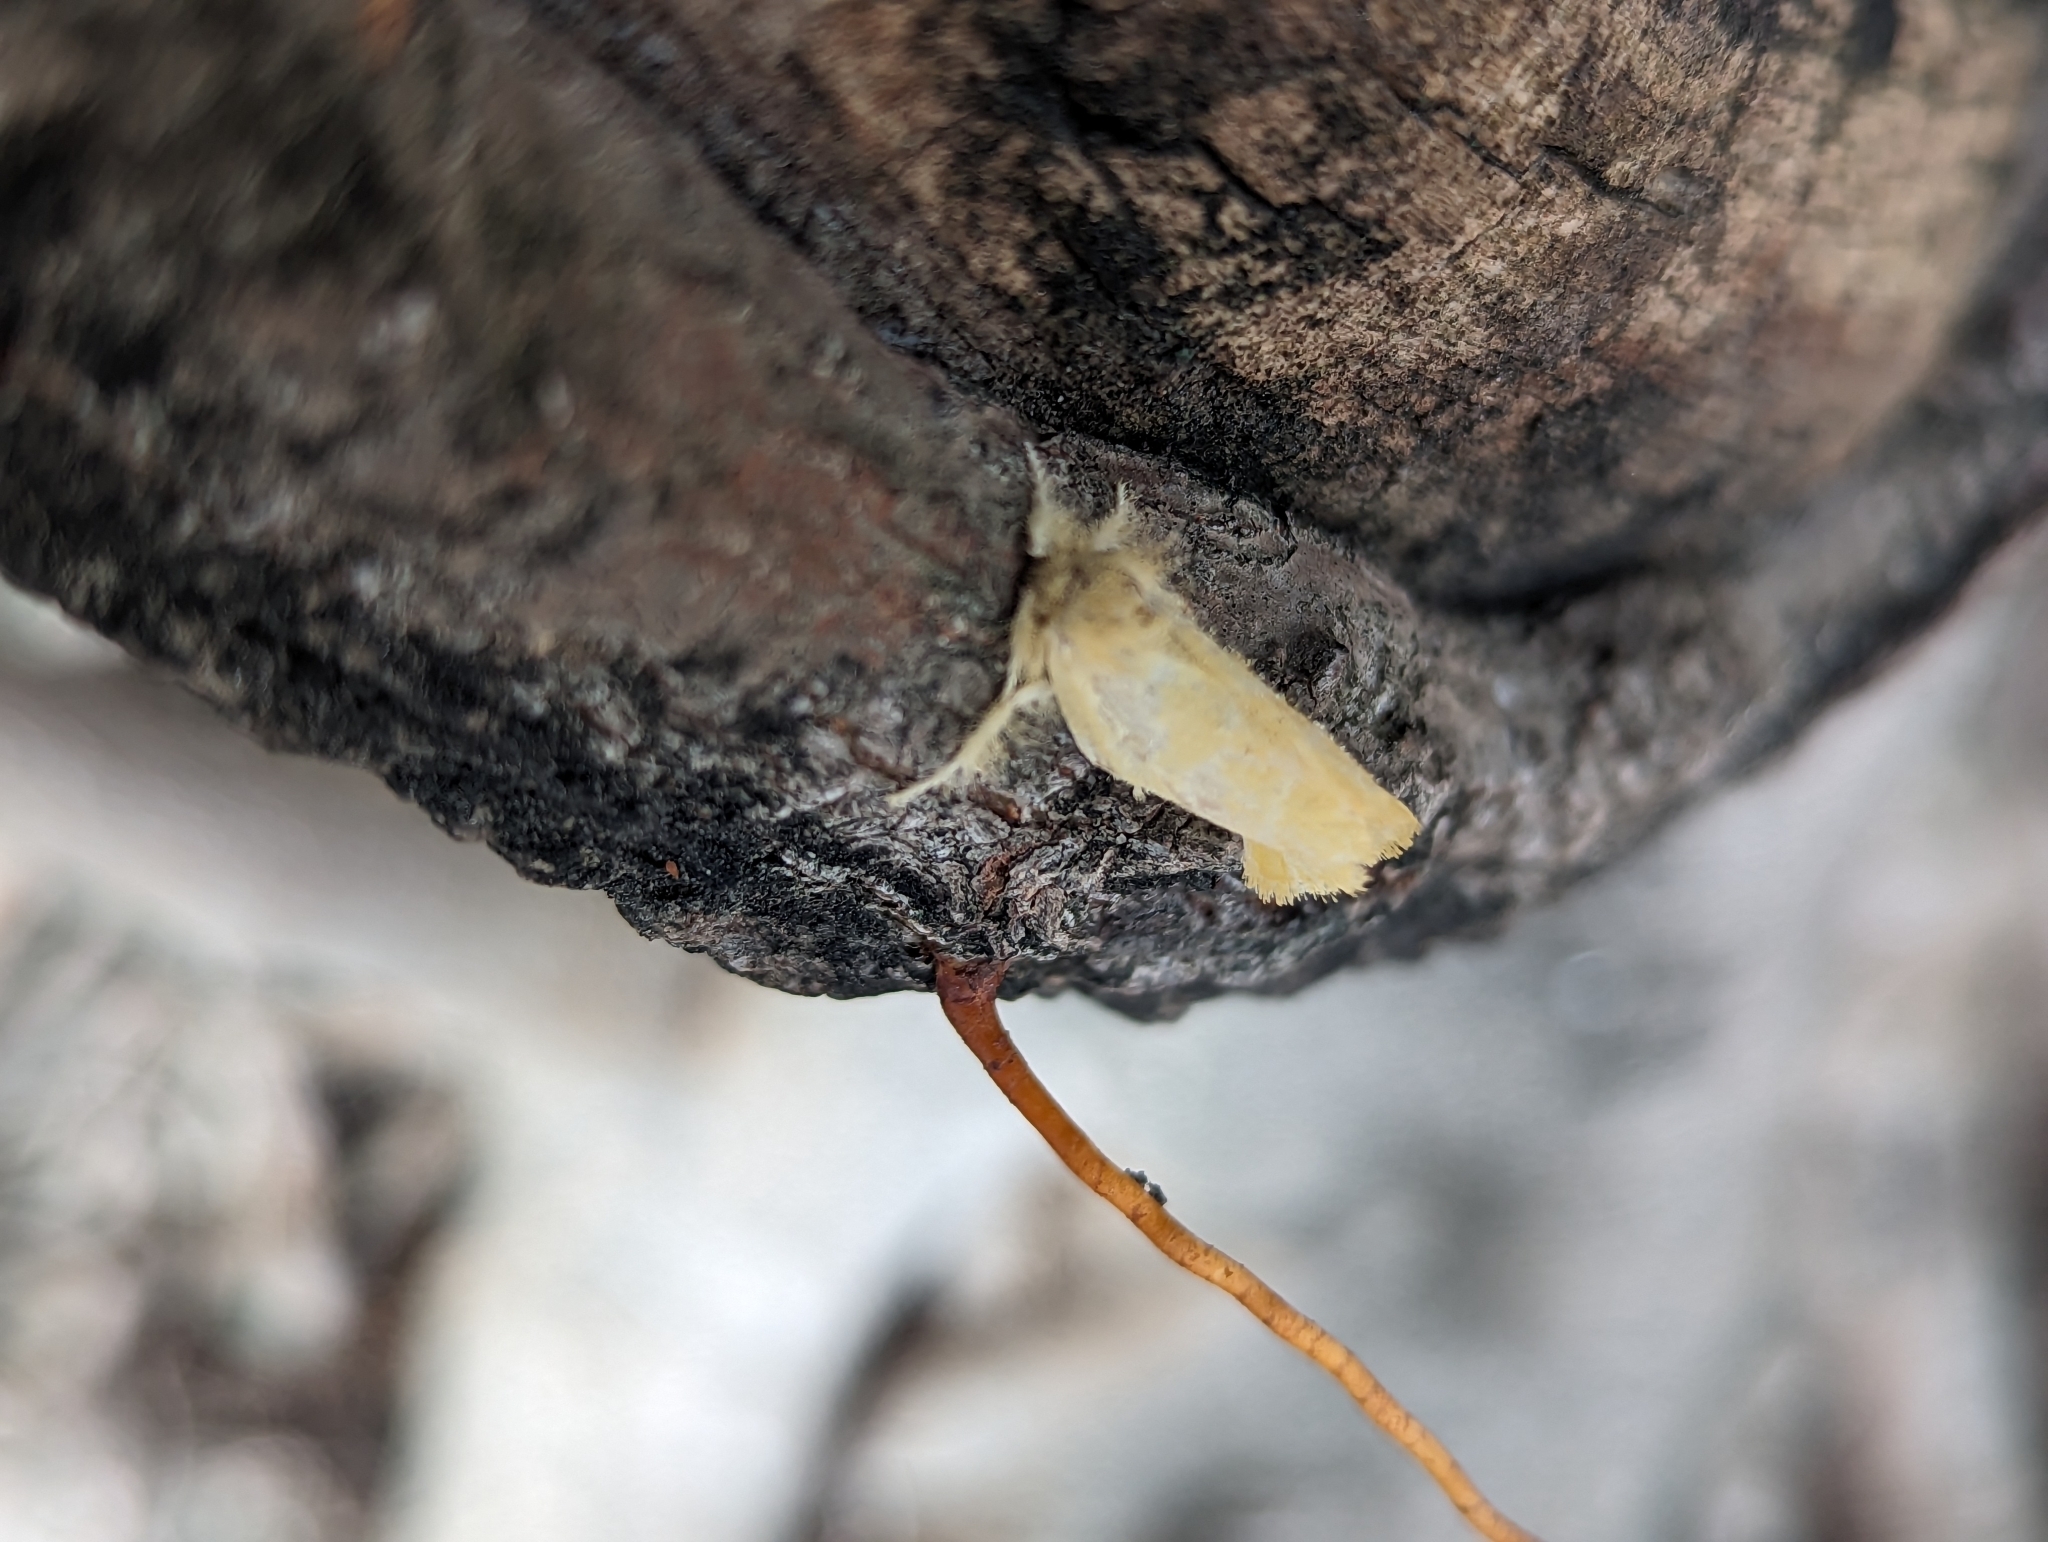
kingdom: Animalia
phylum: Arthropoda
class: Insecta
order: Lepidoptera
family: Erebidae
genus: Euproctis
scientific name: Euproctis taiwana
